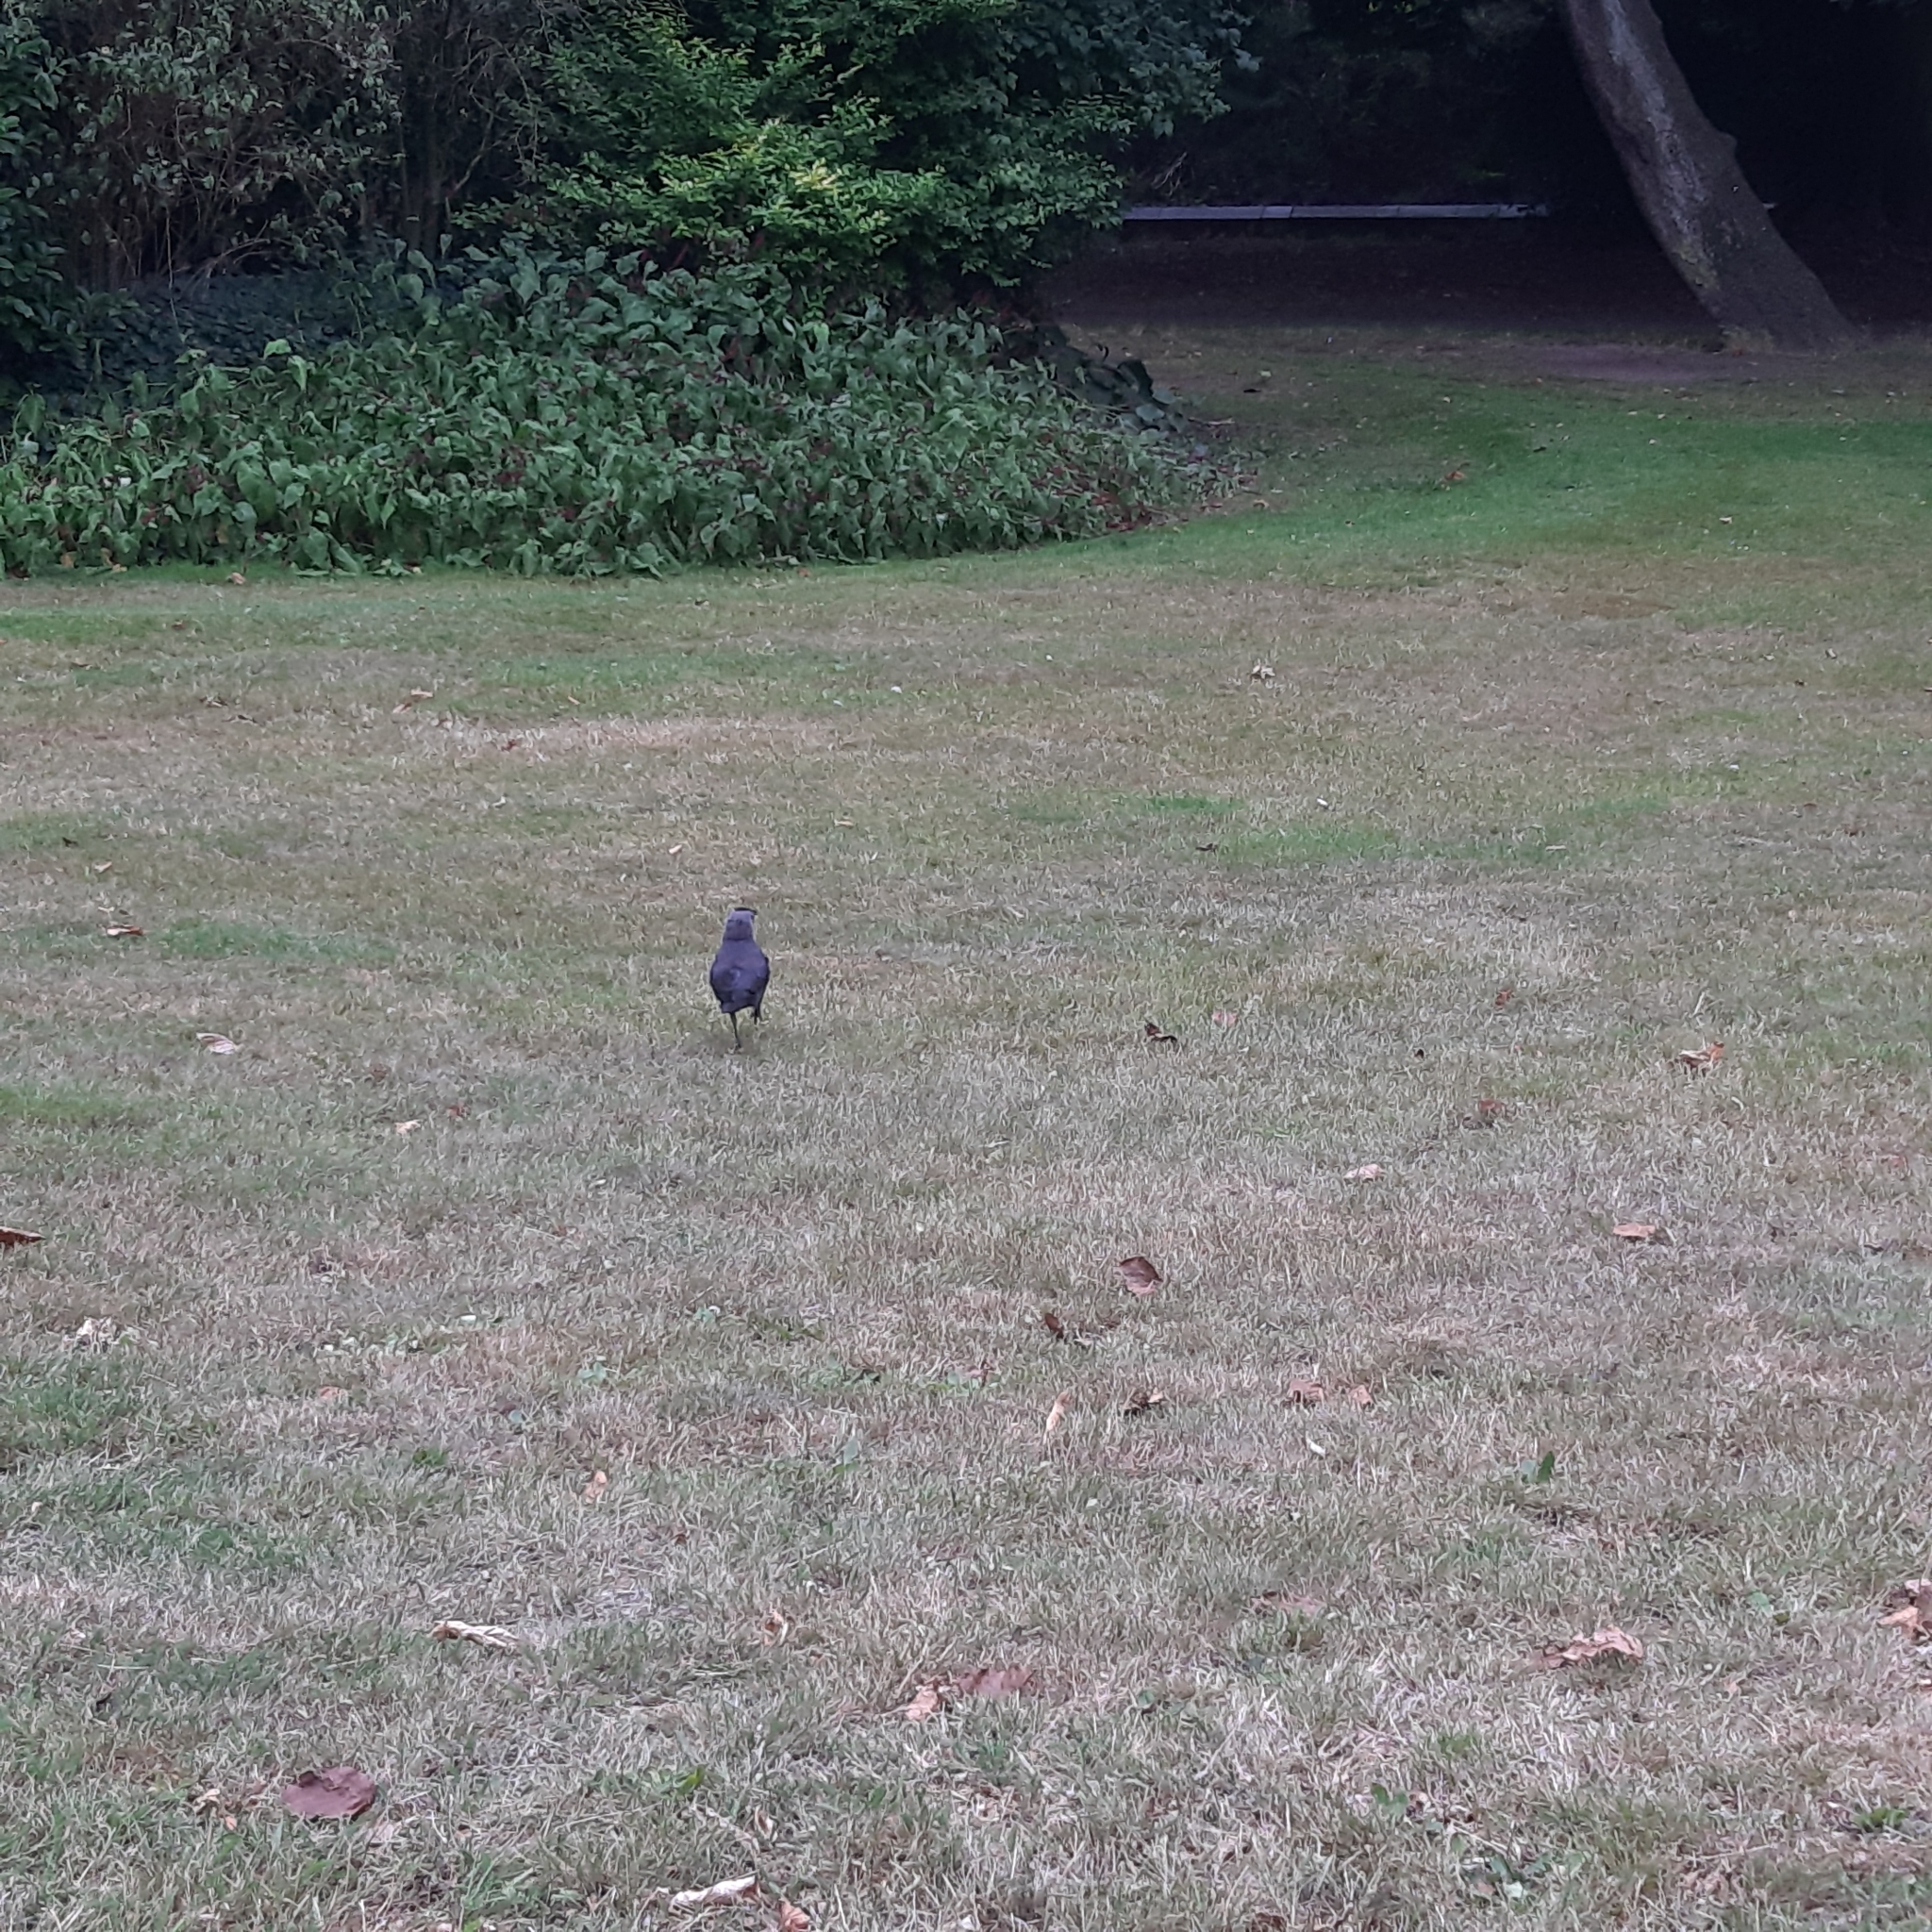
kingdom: Animalia
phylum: Chordata
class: Aves
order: Passeriformes
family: Corvidae
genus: Coloeus
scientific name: Coloeus monedula
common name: Western jackdaw
